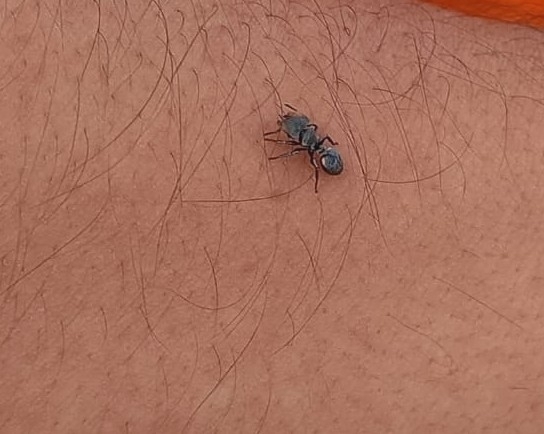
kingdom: Animalia
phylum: Arthropoda
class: Insecta
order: Hymenoptera
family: Formicidae
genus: Cephalotes
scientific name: Cephalotes multispinosus
